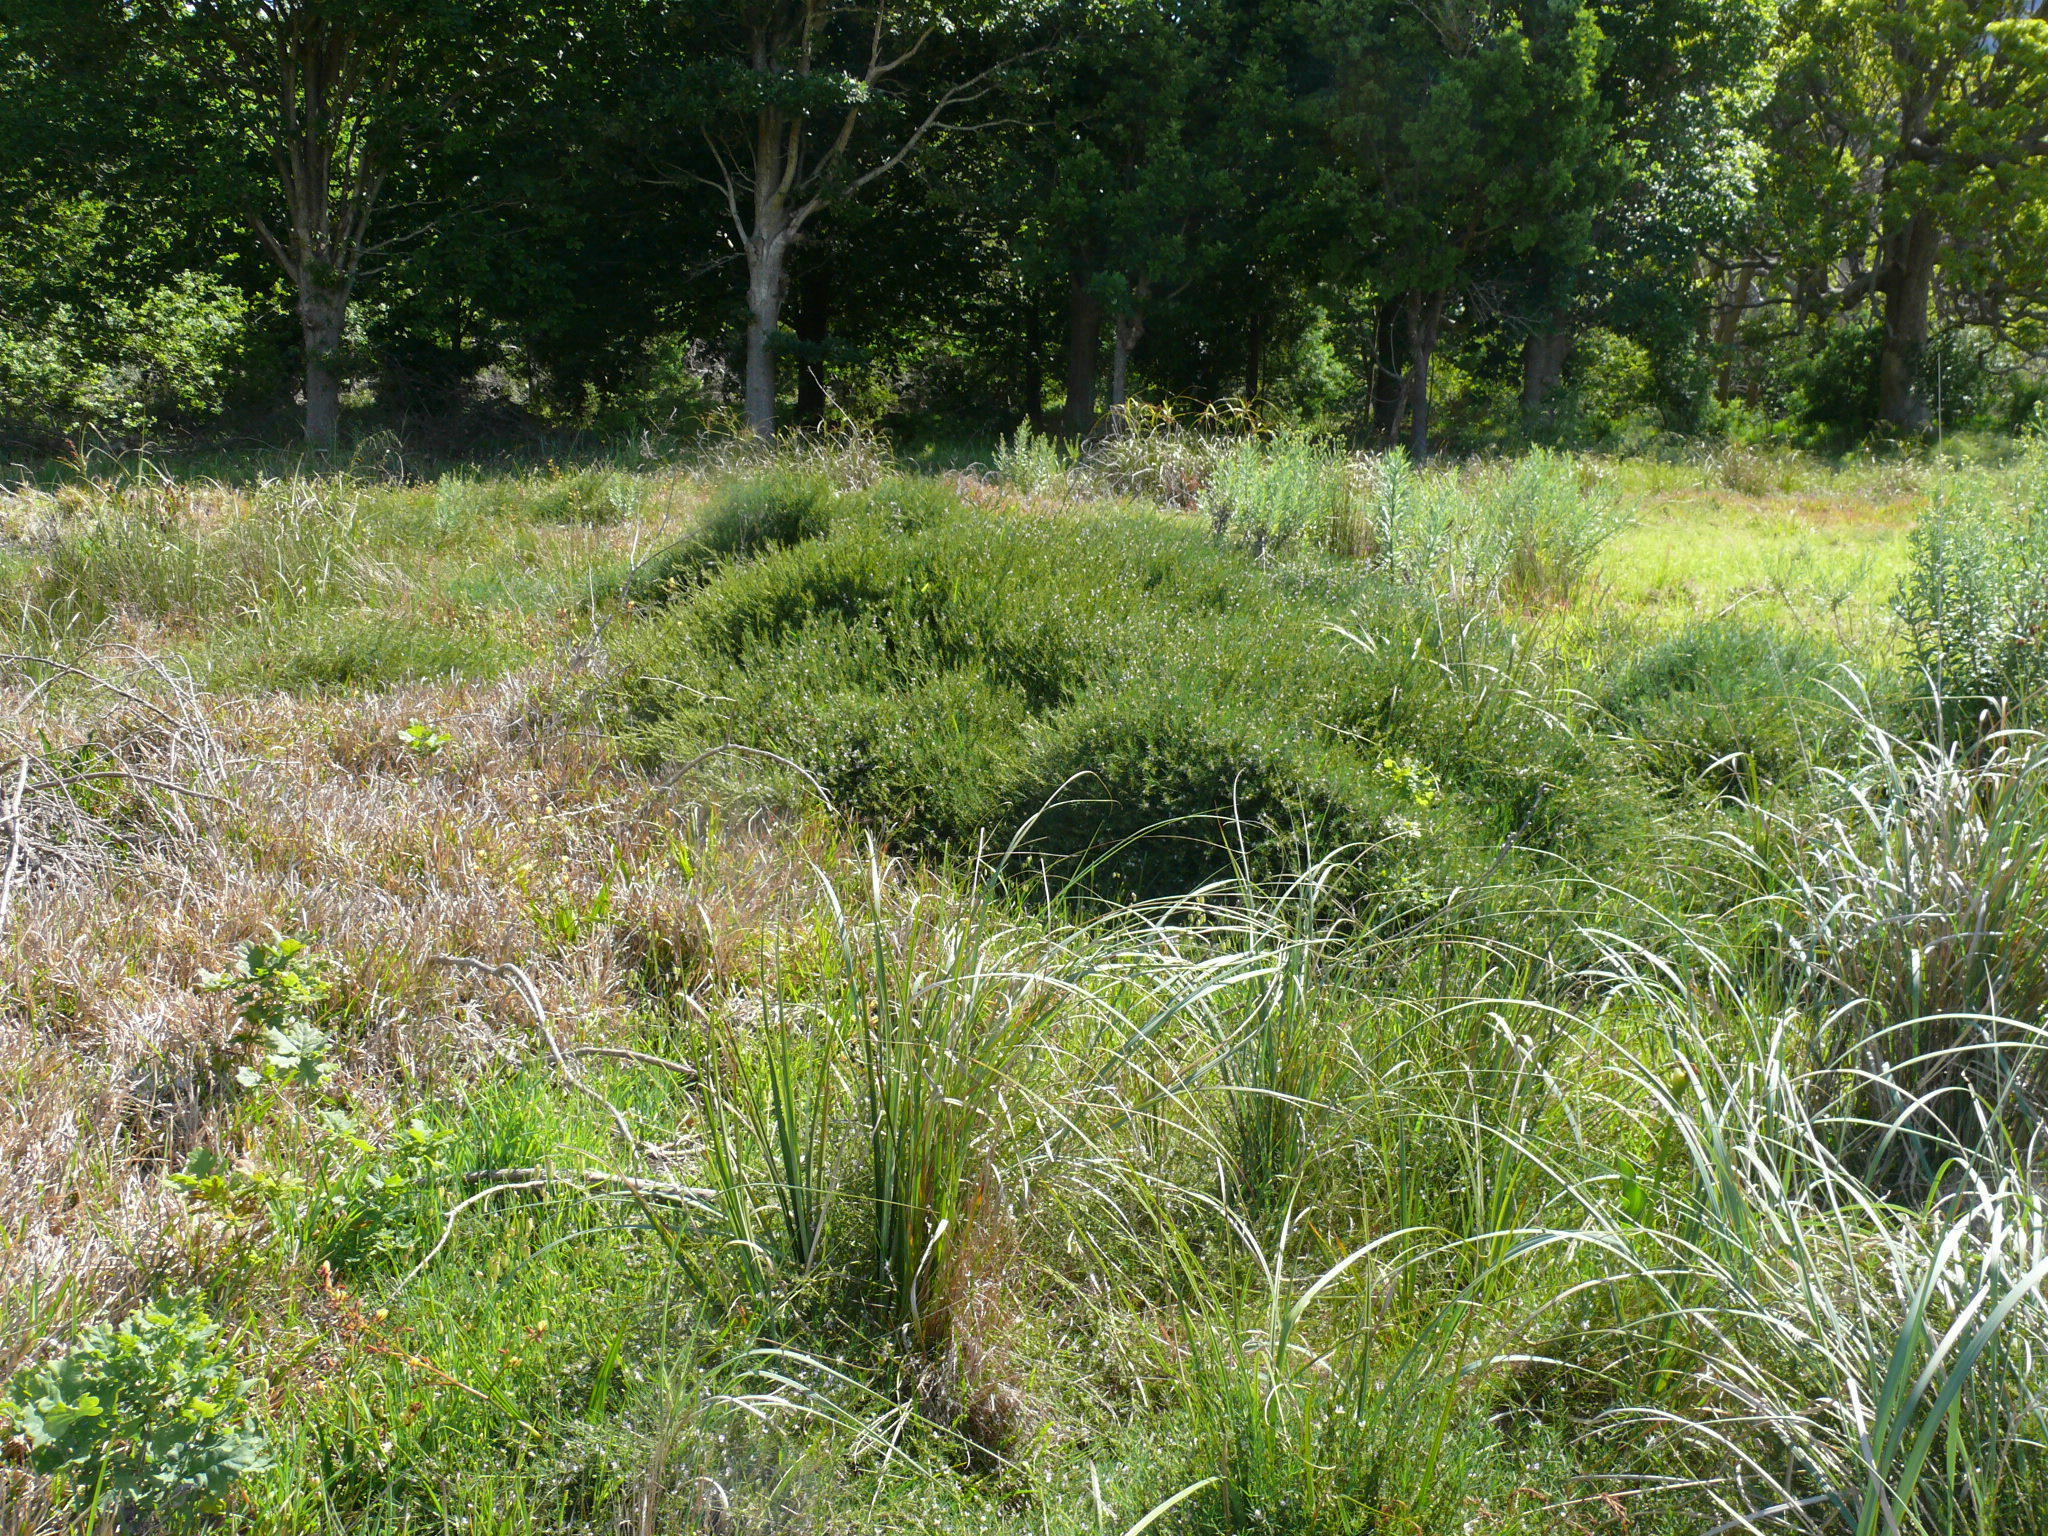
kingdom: Plantae
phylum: Tracheophyta
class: Magnoliopsida
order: Fabales
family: Fabaceae
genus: Psoralea
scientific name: Psoralea fascicularis
